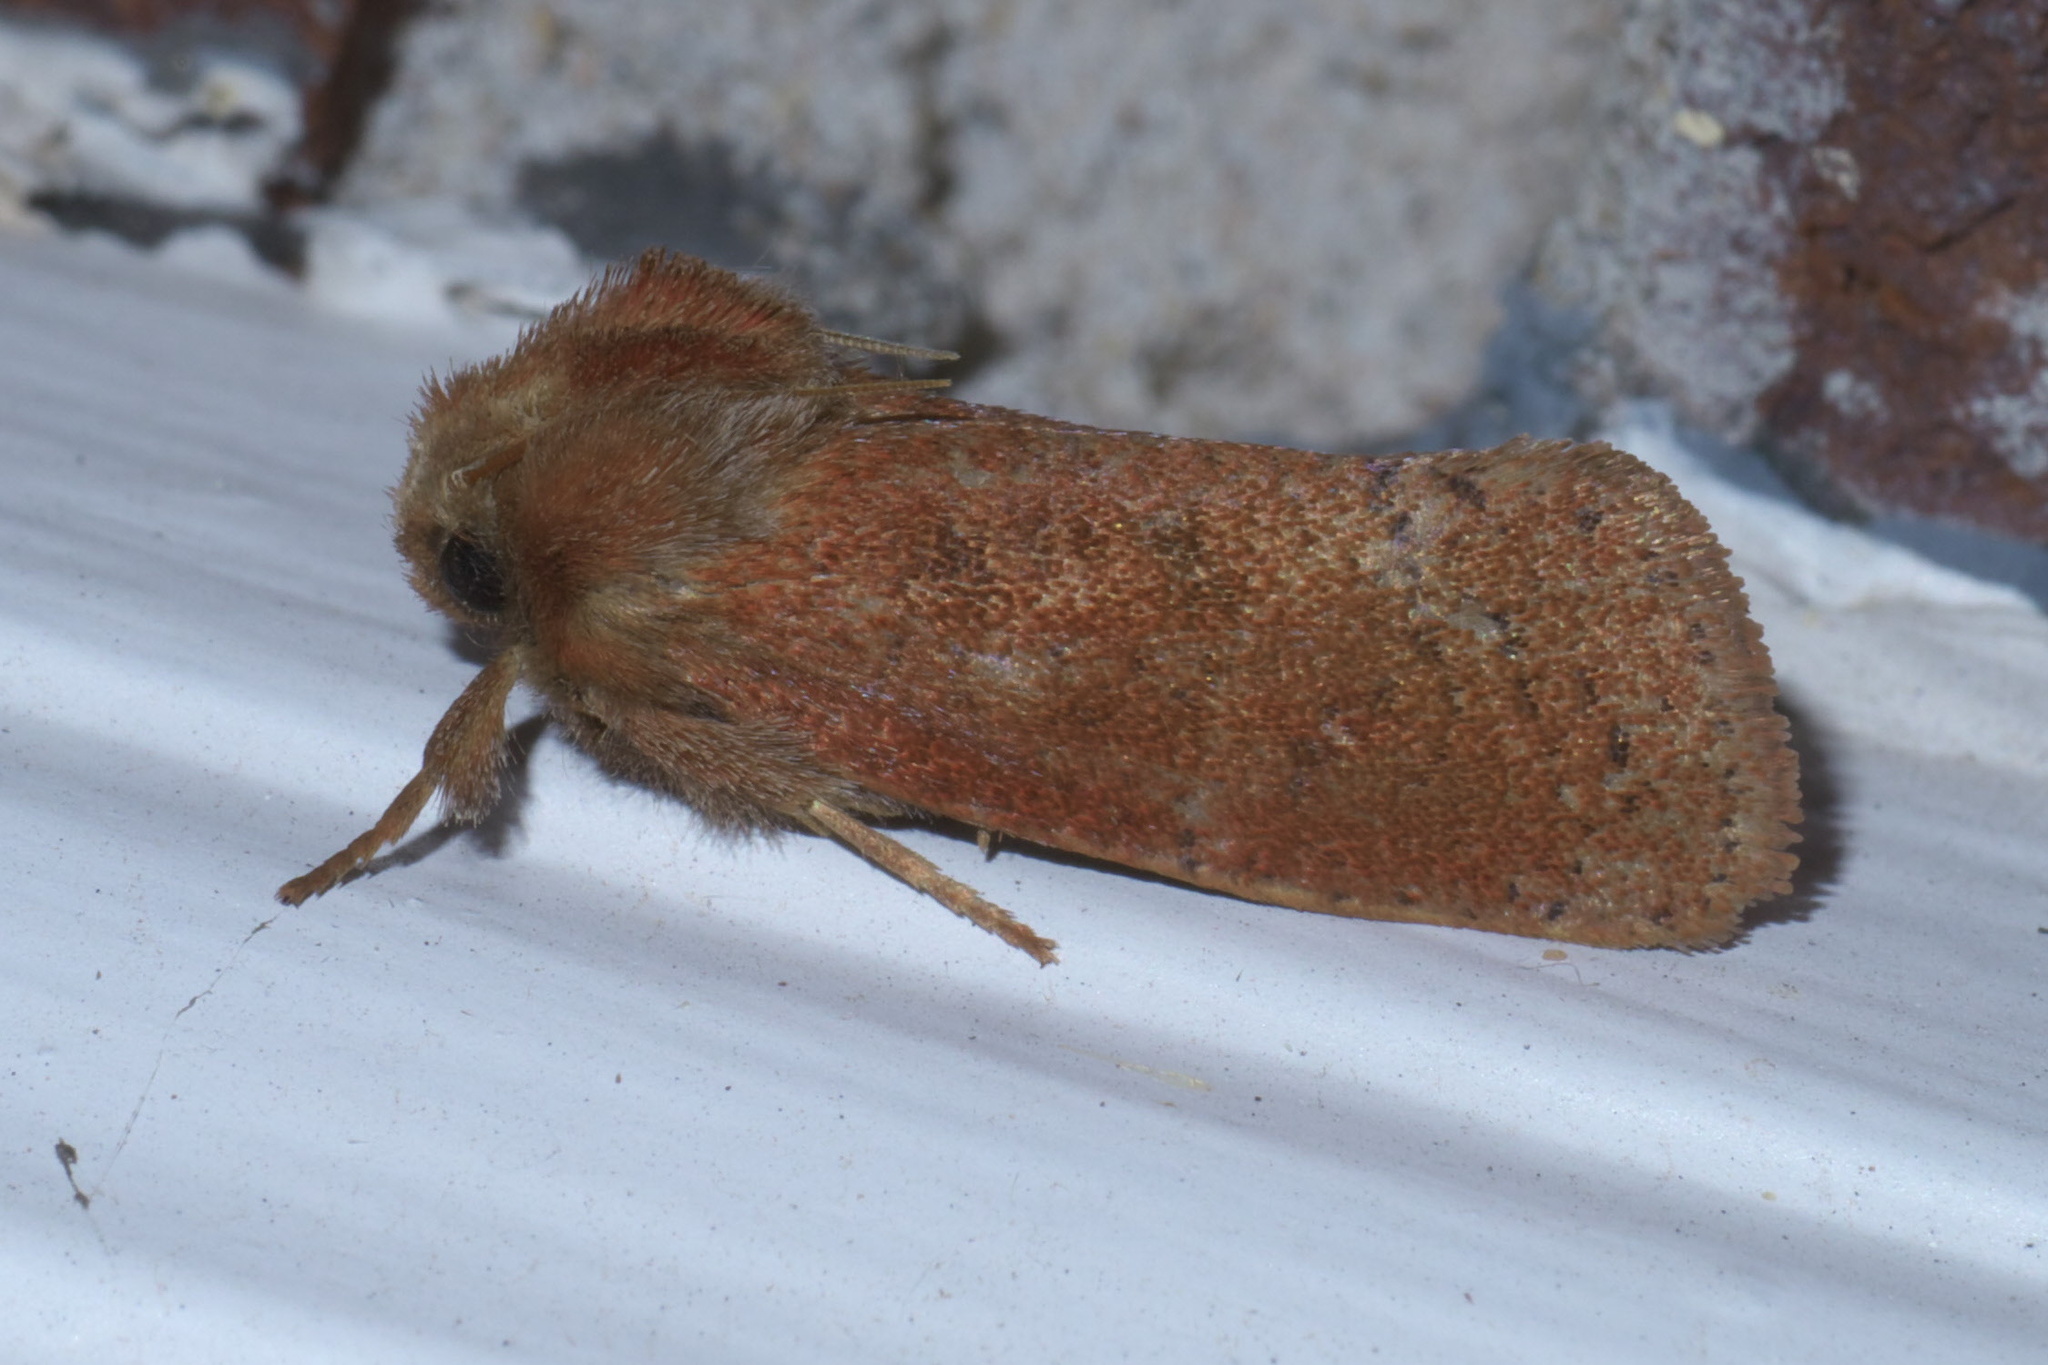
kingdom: Animalia
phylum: Arthropoda
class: Insecta
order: Lepidoptera
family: Tineidae
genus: Acrolophus
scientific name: Acrolophus plumifrontella
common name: Eastern grass tubeworm moth
